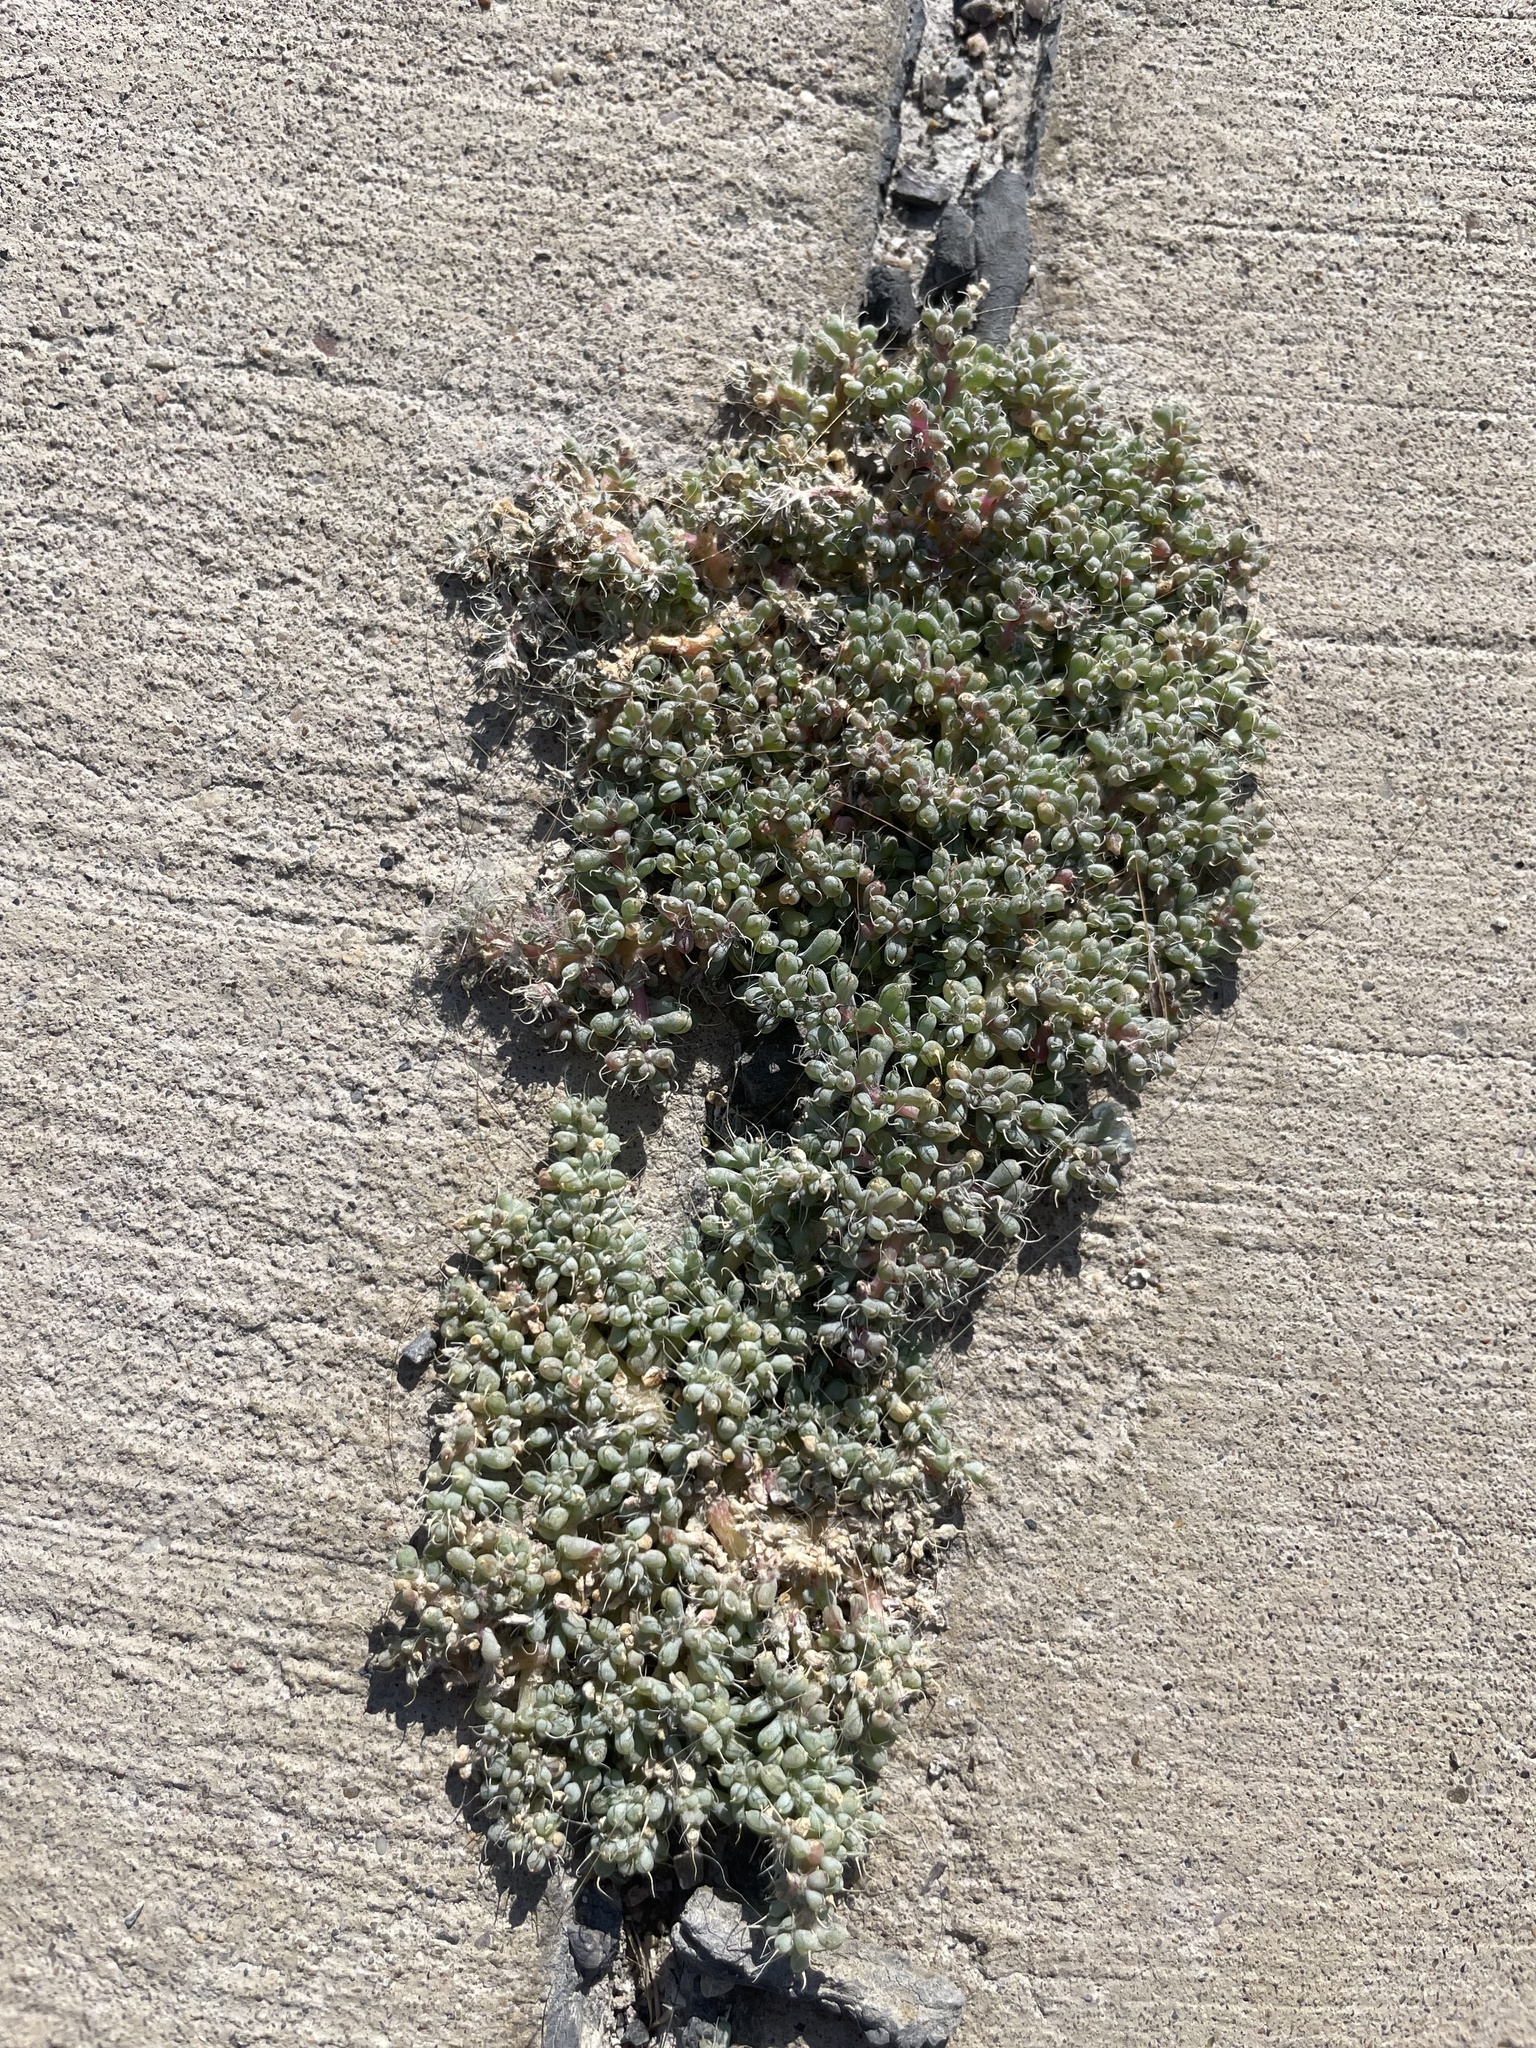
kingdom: Plantae
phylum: Tracheophyta
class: Magnoliopsida
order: Caryophyllales
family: Amaranthaceae
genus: Halogeton
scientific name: Halogeton glomeratus
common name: Saltlover
